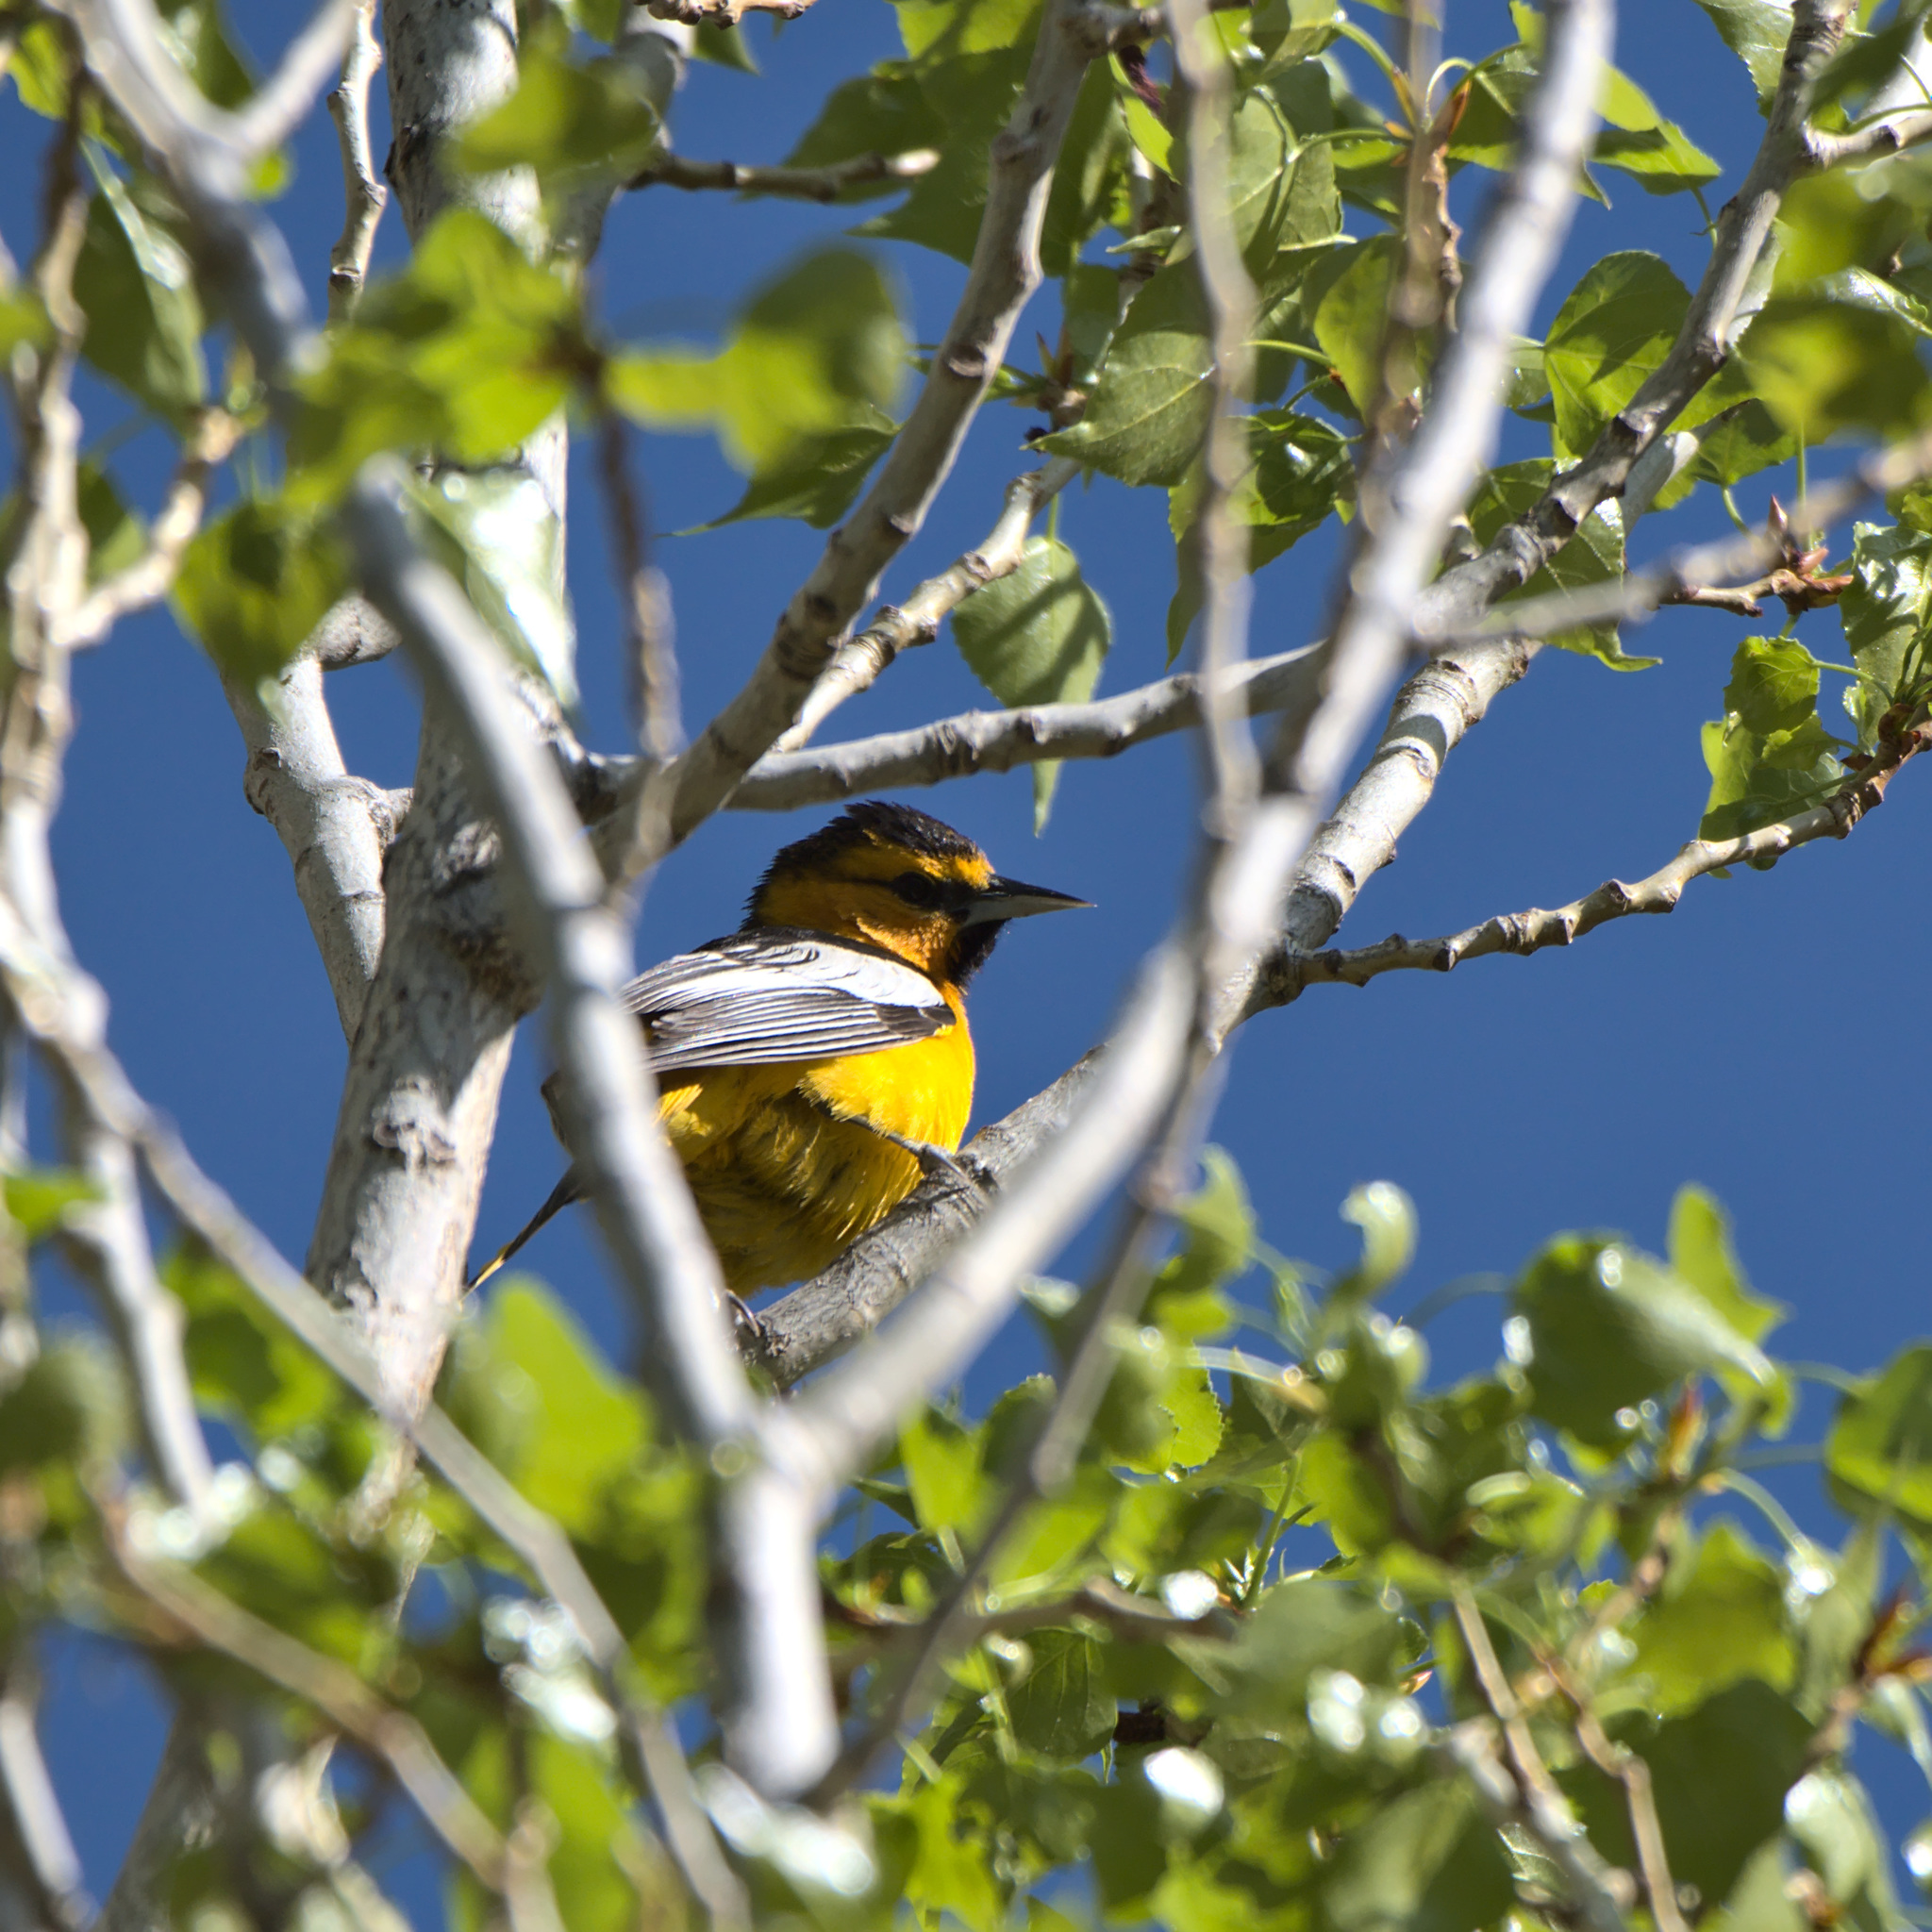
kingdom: Animalia
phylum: Chordata
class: Aves
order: Passeriformes
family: Icteridae
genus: Icterus
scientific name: Icterus bullockii
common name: Bullock's oriole
